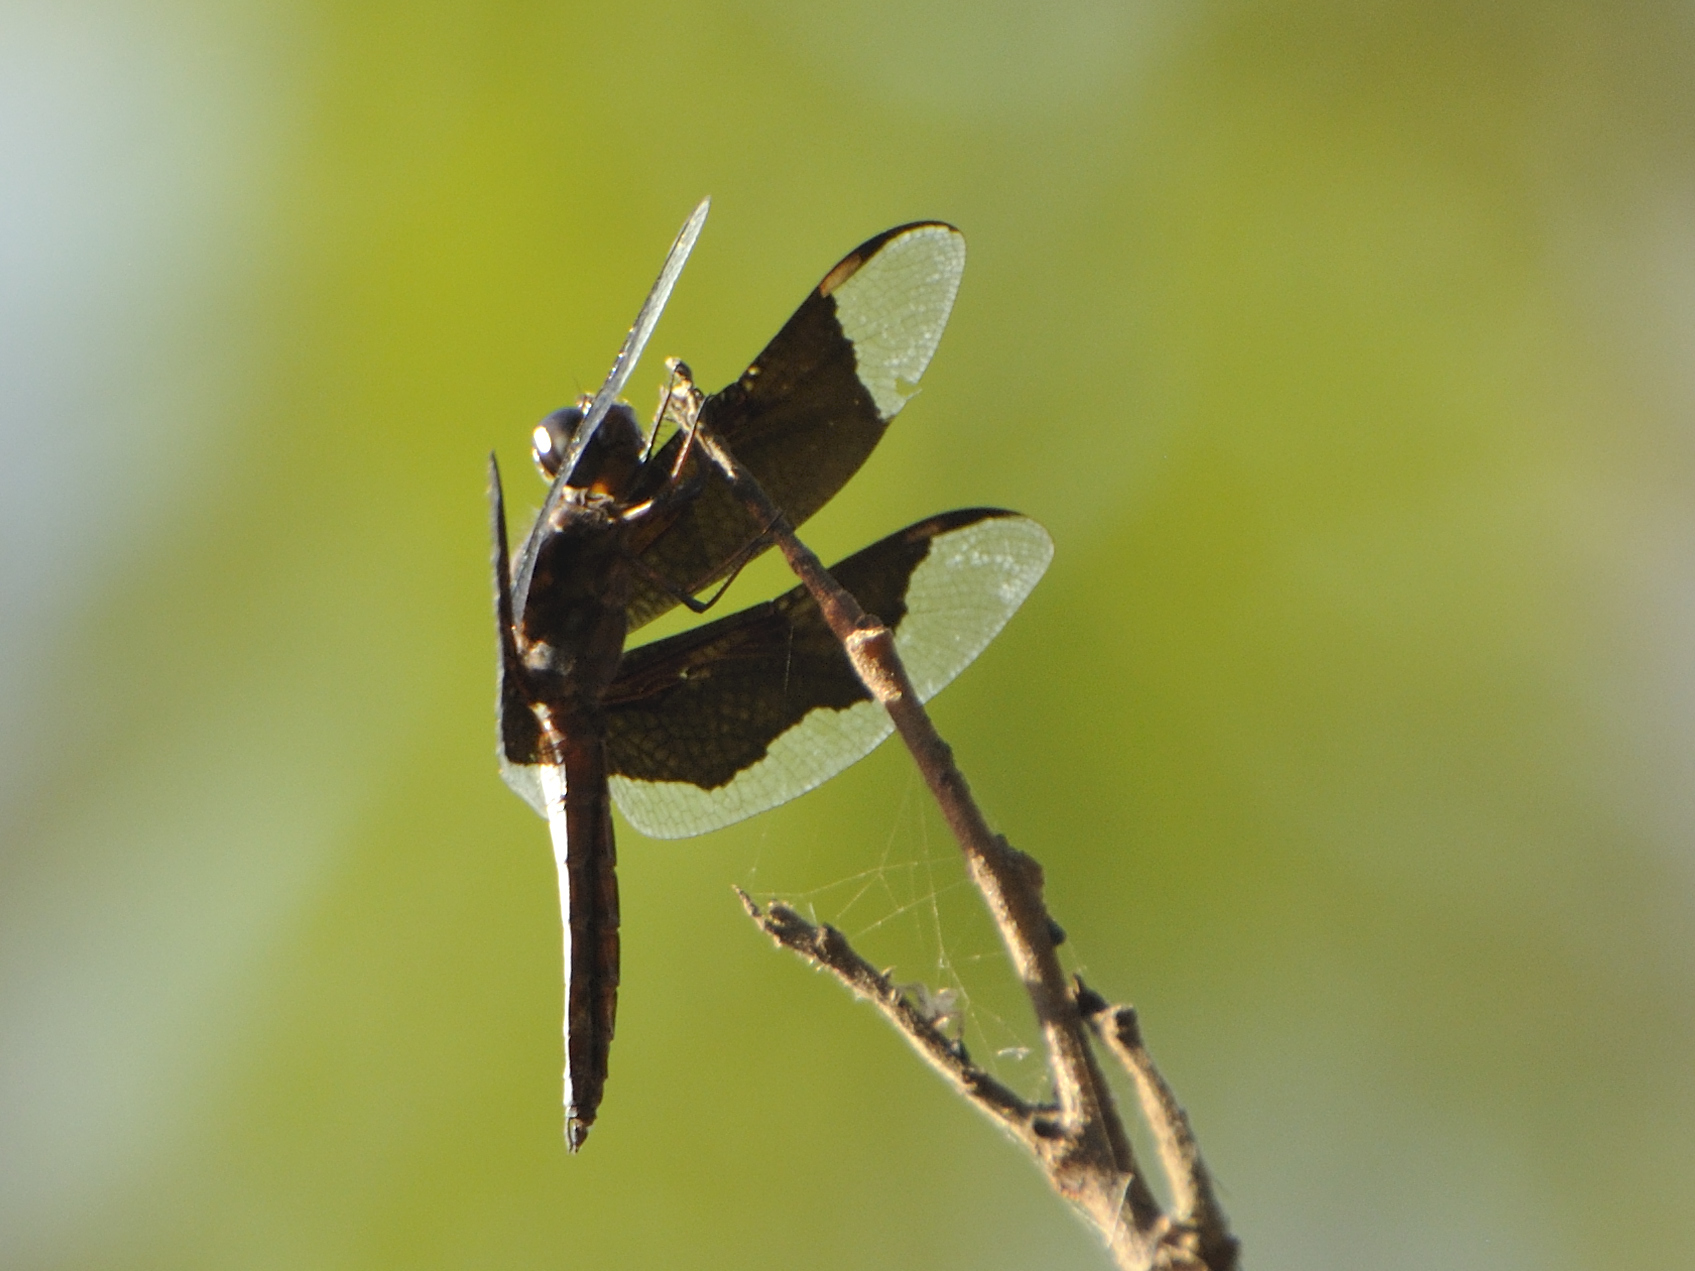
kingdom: Animalia
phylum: Arthropoda
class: Insecta
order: Odonata
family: Libellulidae
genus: Palpopleura
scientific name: Palpopleura lucia
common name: Lucia widow
